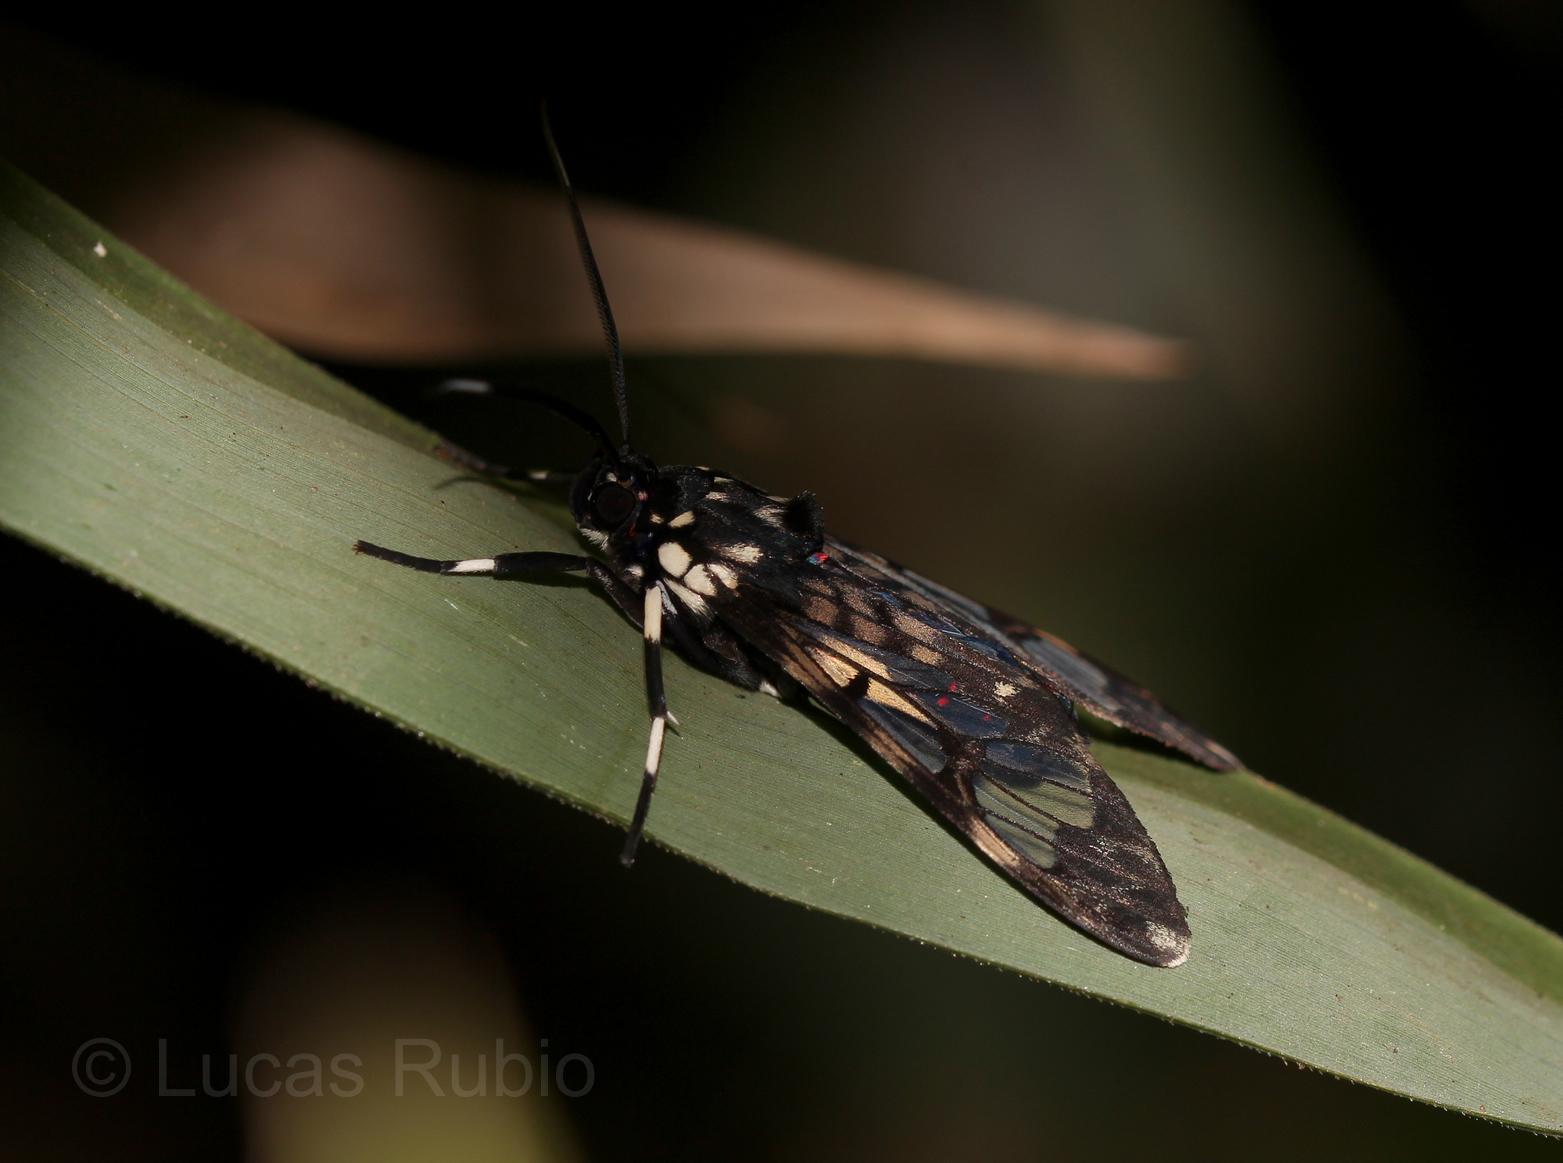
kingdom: Animalia
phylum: Arthropoda
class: Insecta
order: Lepidoptera
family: Erebidae
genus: Hyaleucerea
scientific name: Hyaleucerea vulnerata
